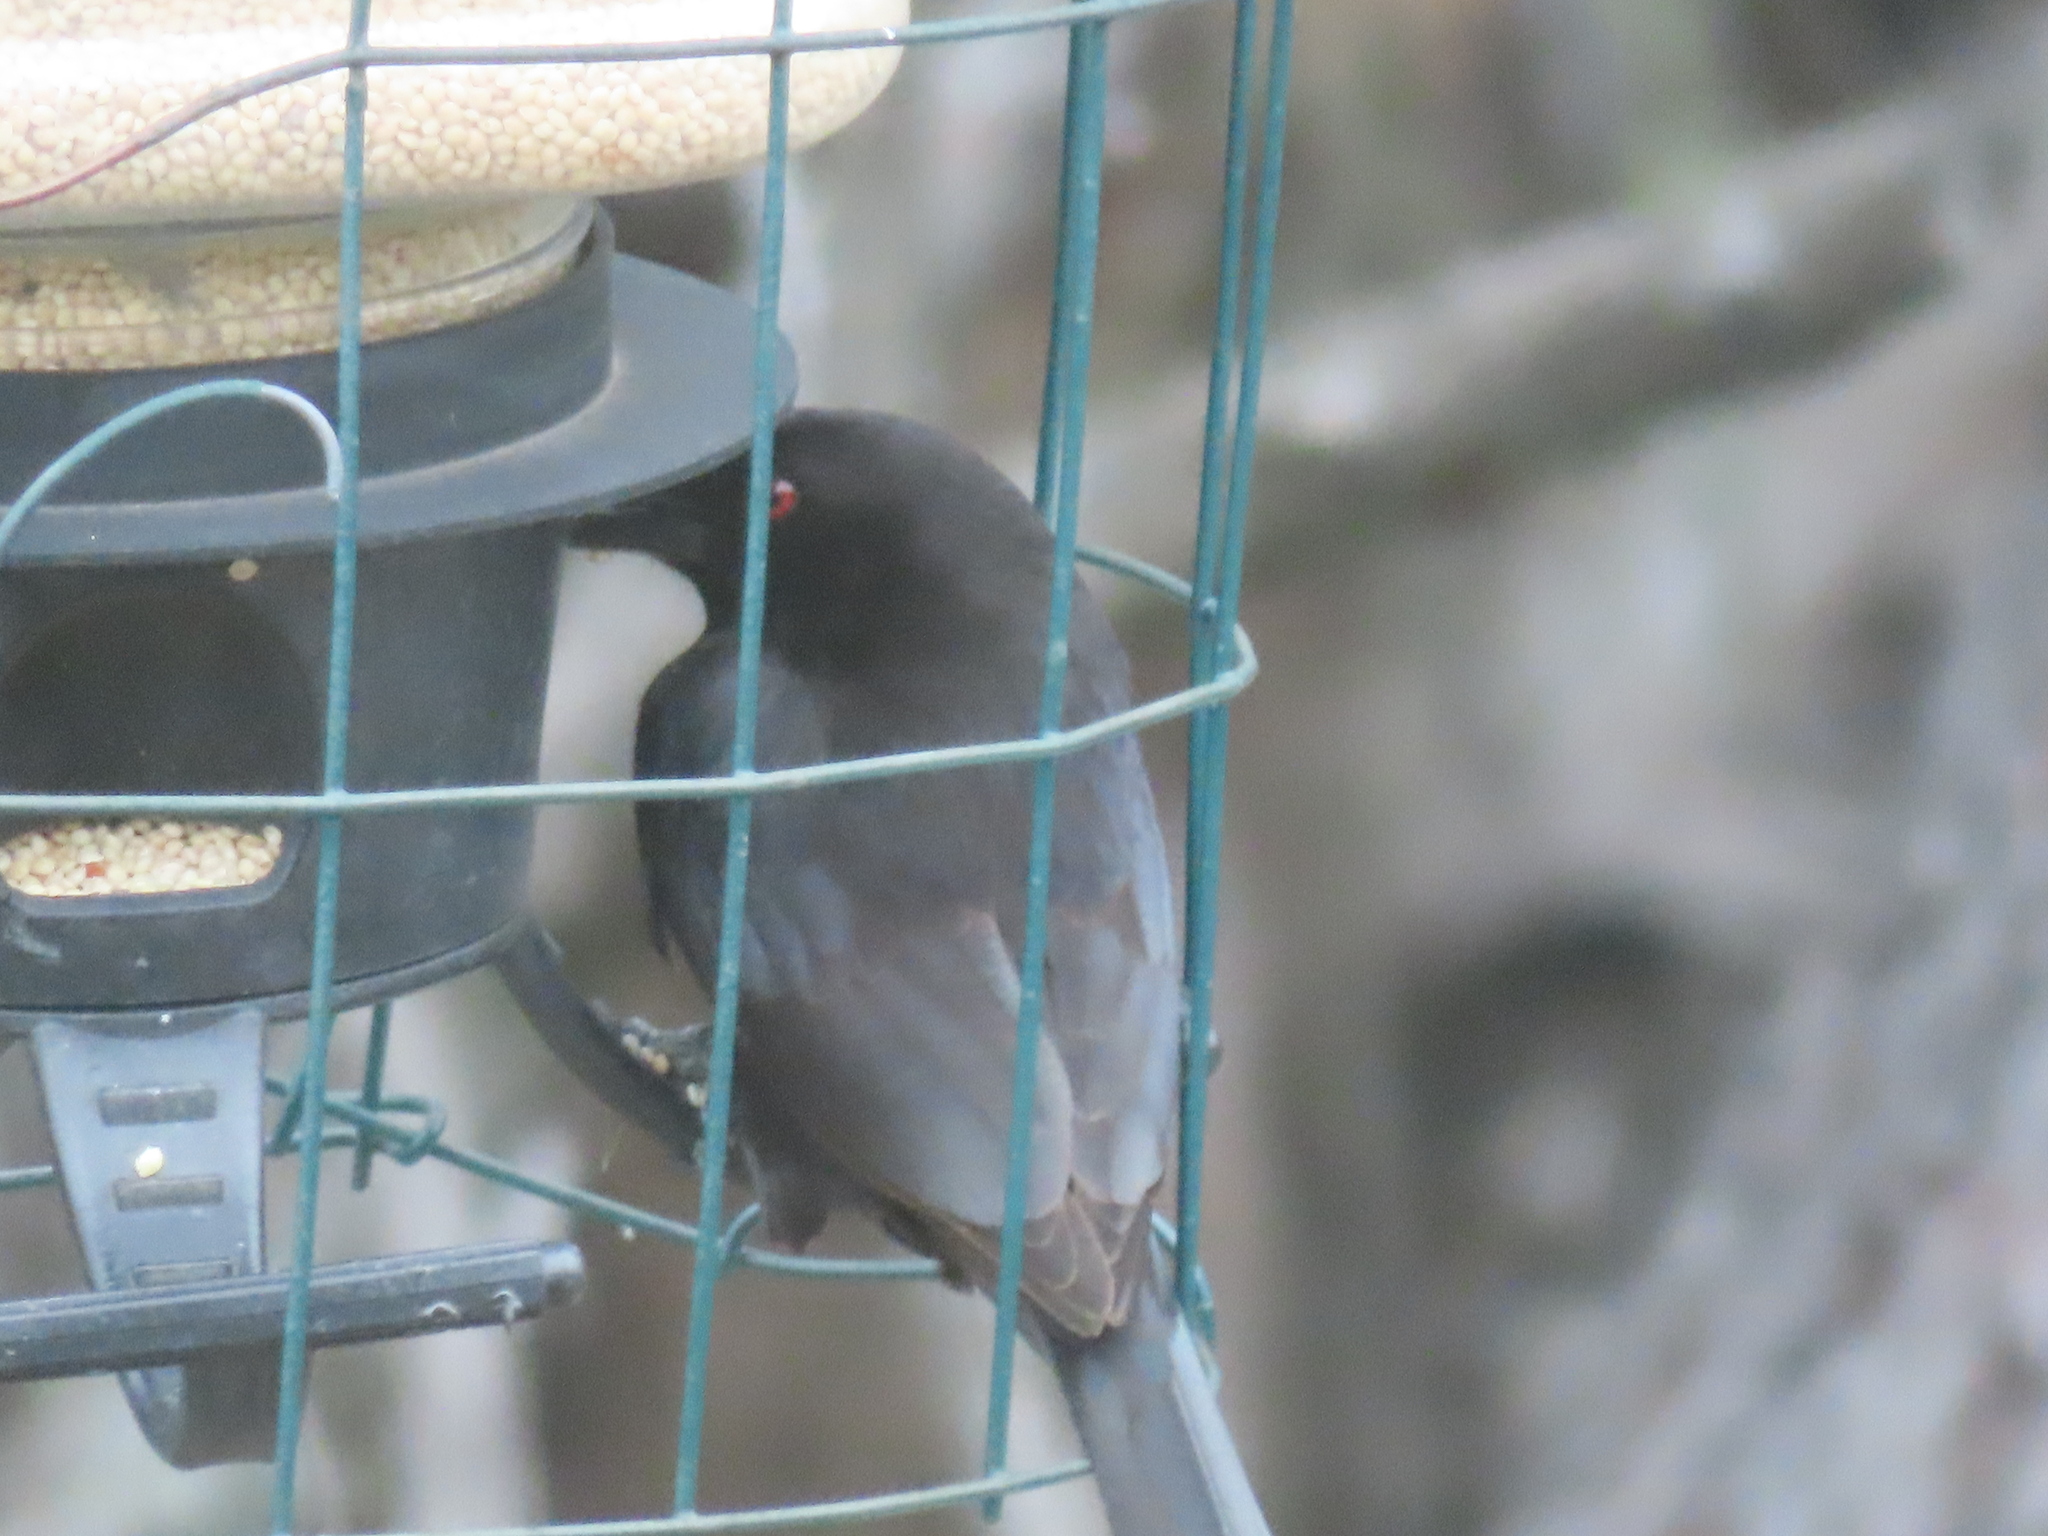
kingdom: Animalia
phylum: Chordata
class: Aves
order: Passeriformes
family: Icteridae
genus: Molothrus
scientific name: Molothrus aeneus
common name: Bronzed cowbird
